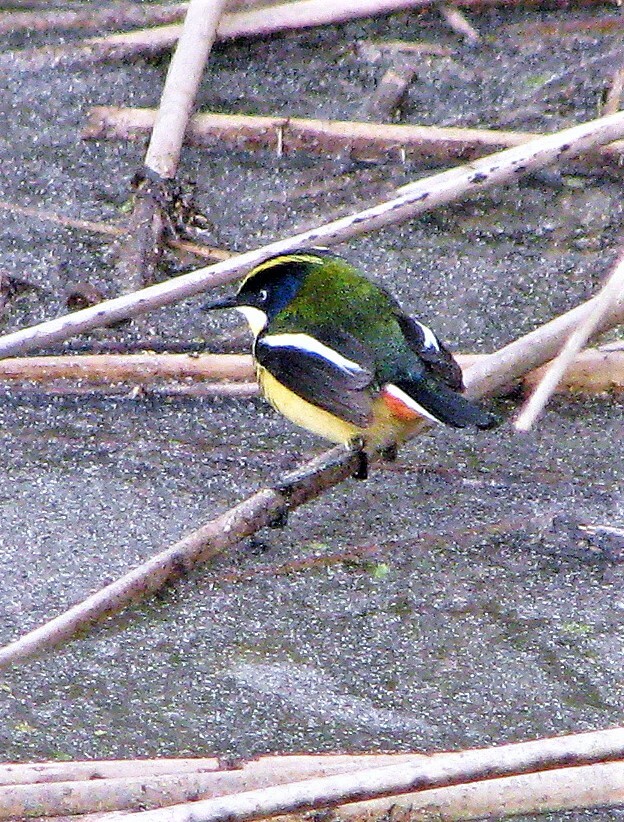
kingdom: Animalia
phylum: Chordata
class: Aves
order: Passeriformes
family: Tyrannidae
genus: Tachuris
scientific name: Tachuris rubrigastra
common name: Many-colored rush tyrant
